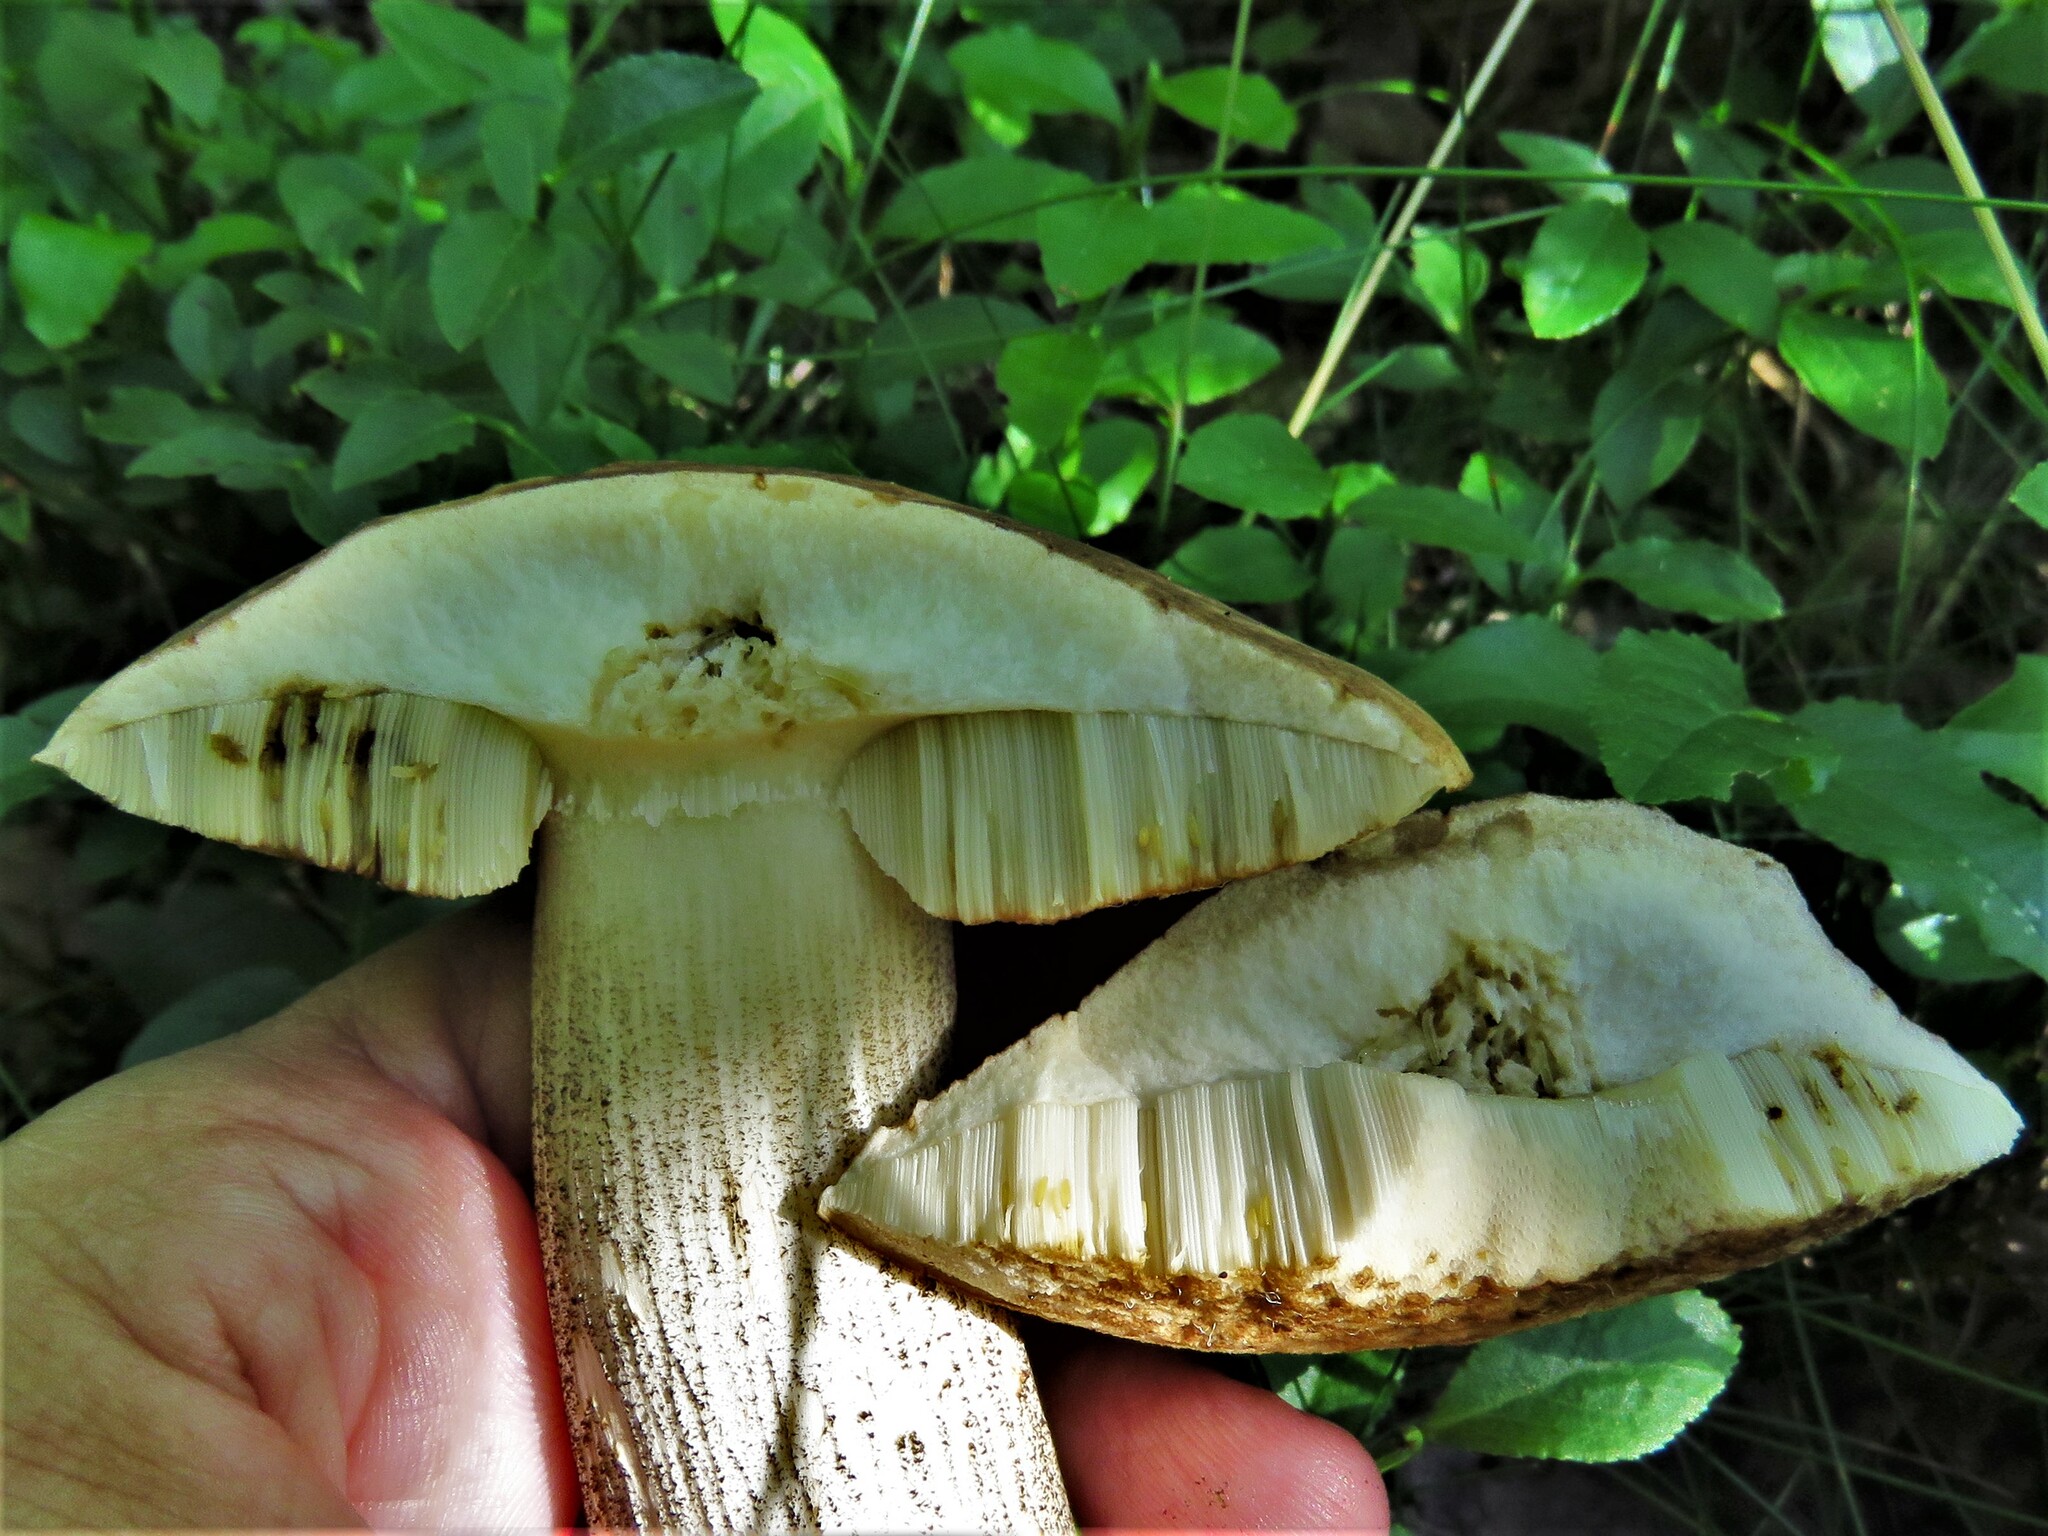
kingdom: Fungi
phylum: Basidiomycota
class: Agaricomycetes
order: Boletales
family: Boletaceae
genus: Leccinum
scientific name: Leccinum scabrum
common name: Blushing bolete
